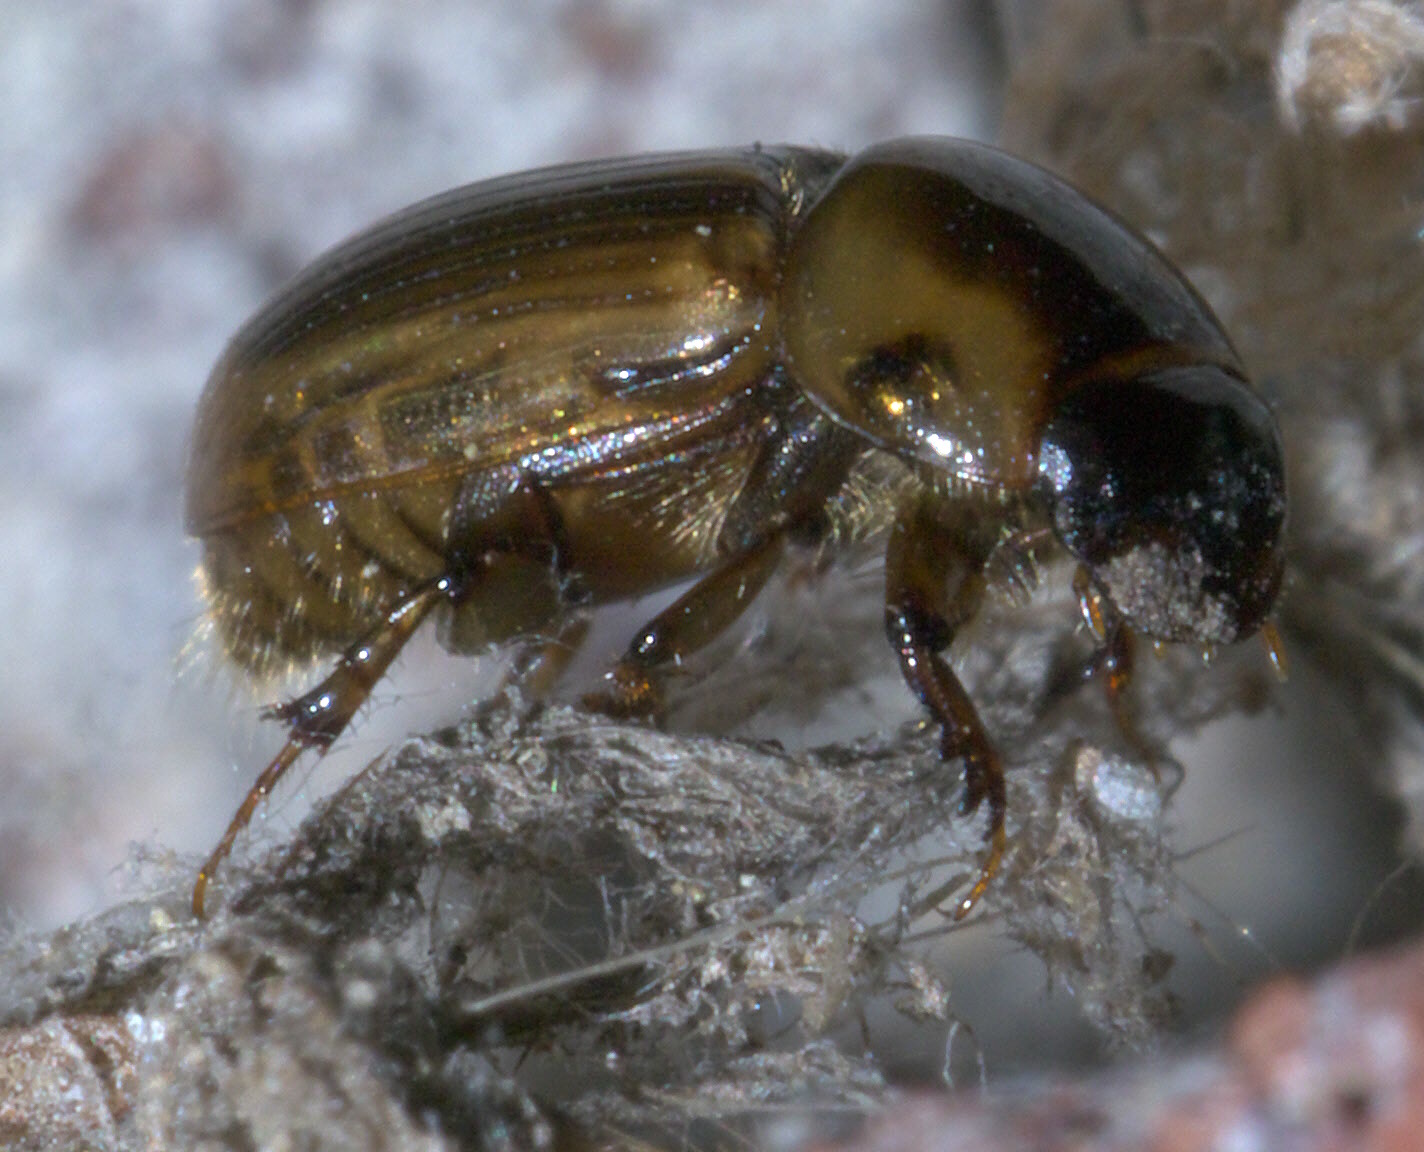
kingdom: Animalia
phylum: Arthropoda
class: Insecta
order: Coleoptera
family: Scarabaeidae
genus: Labarrus
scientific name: Labarrus lividus
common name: Scarab beetle
